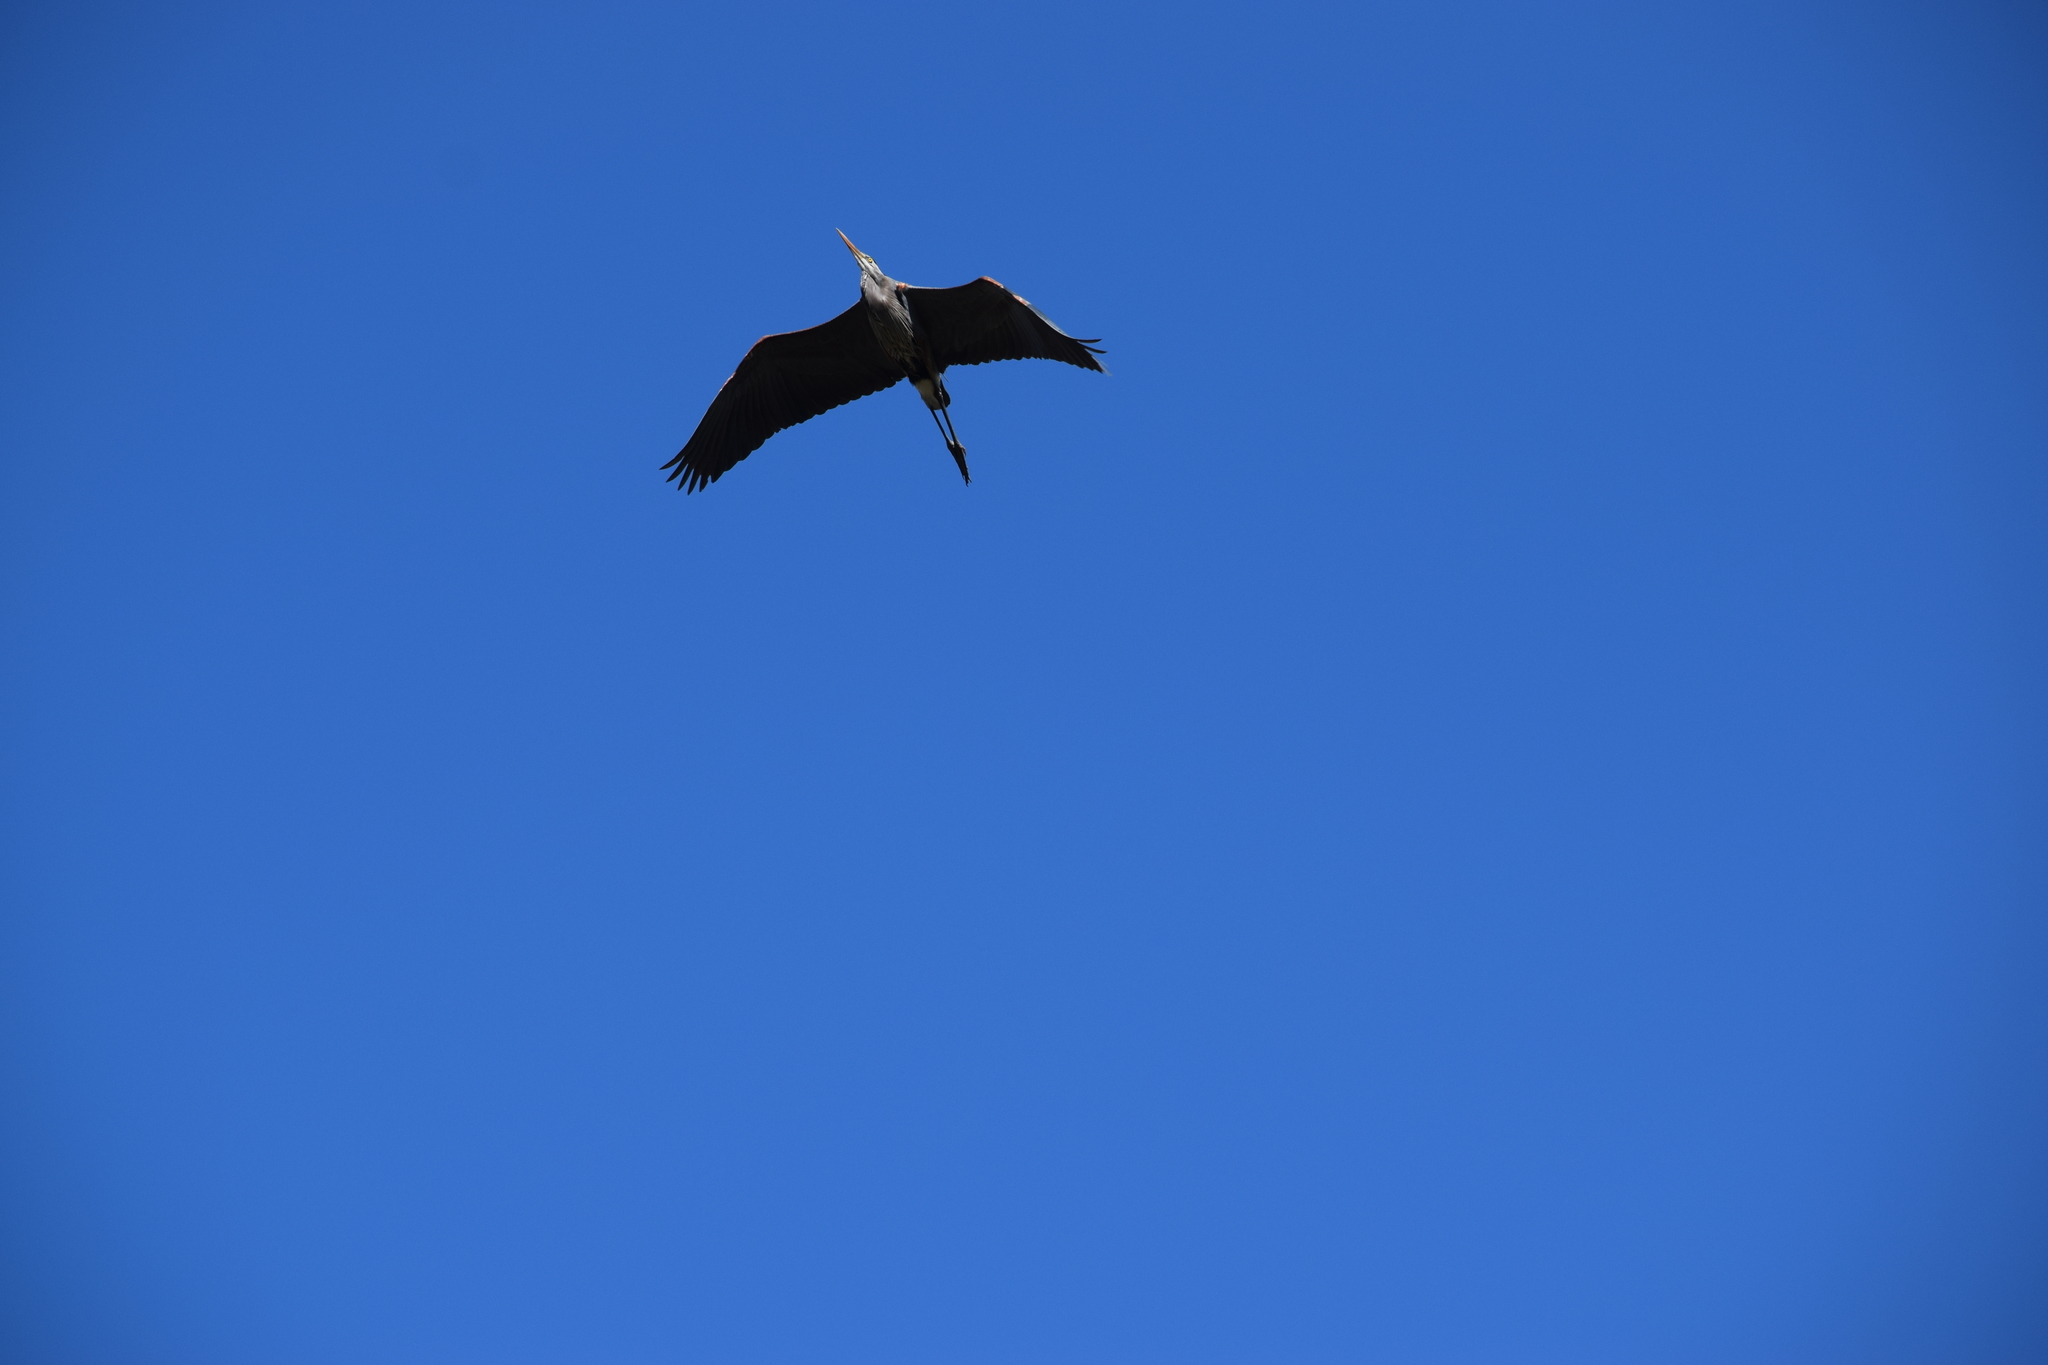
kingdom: Animalia
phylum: Chordata
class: Aves
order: Pelecaniformes
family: Ardeidae
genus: Ardea
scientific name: Ardea herodias
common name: Great blue heron
